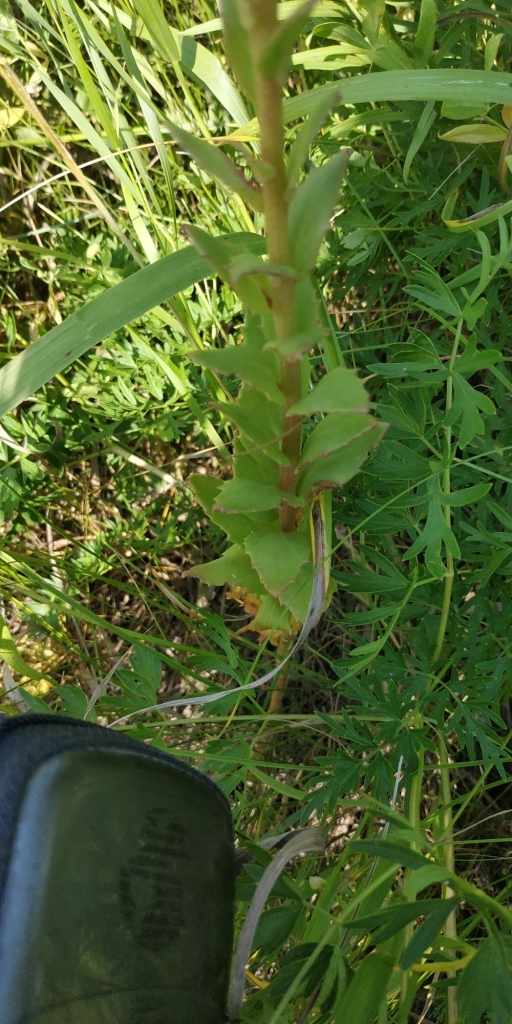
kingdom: Plantae
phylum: Tracheophyta
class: Magnoliopsida
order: Saxifragales
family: Crassulaceae
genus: Hylotelephium
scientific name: Hylotelephium telephium
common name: Live-forever
